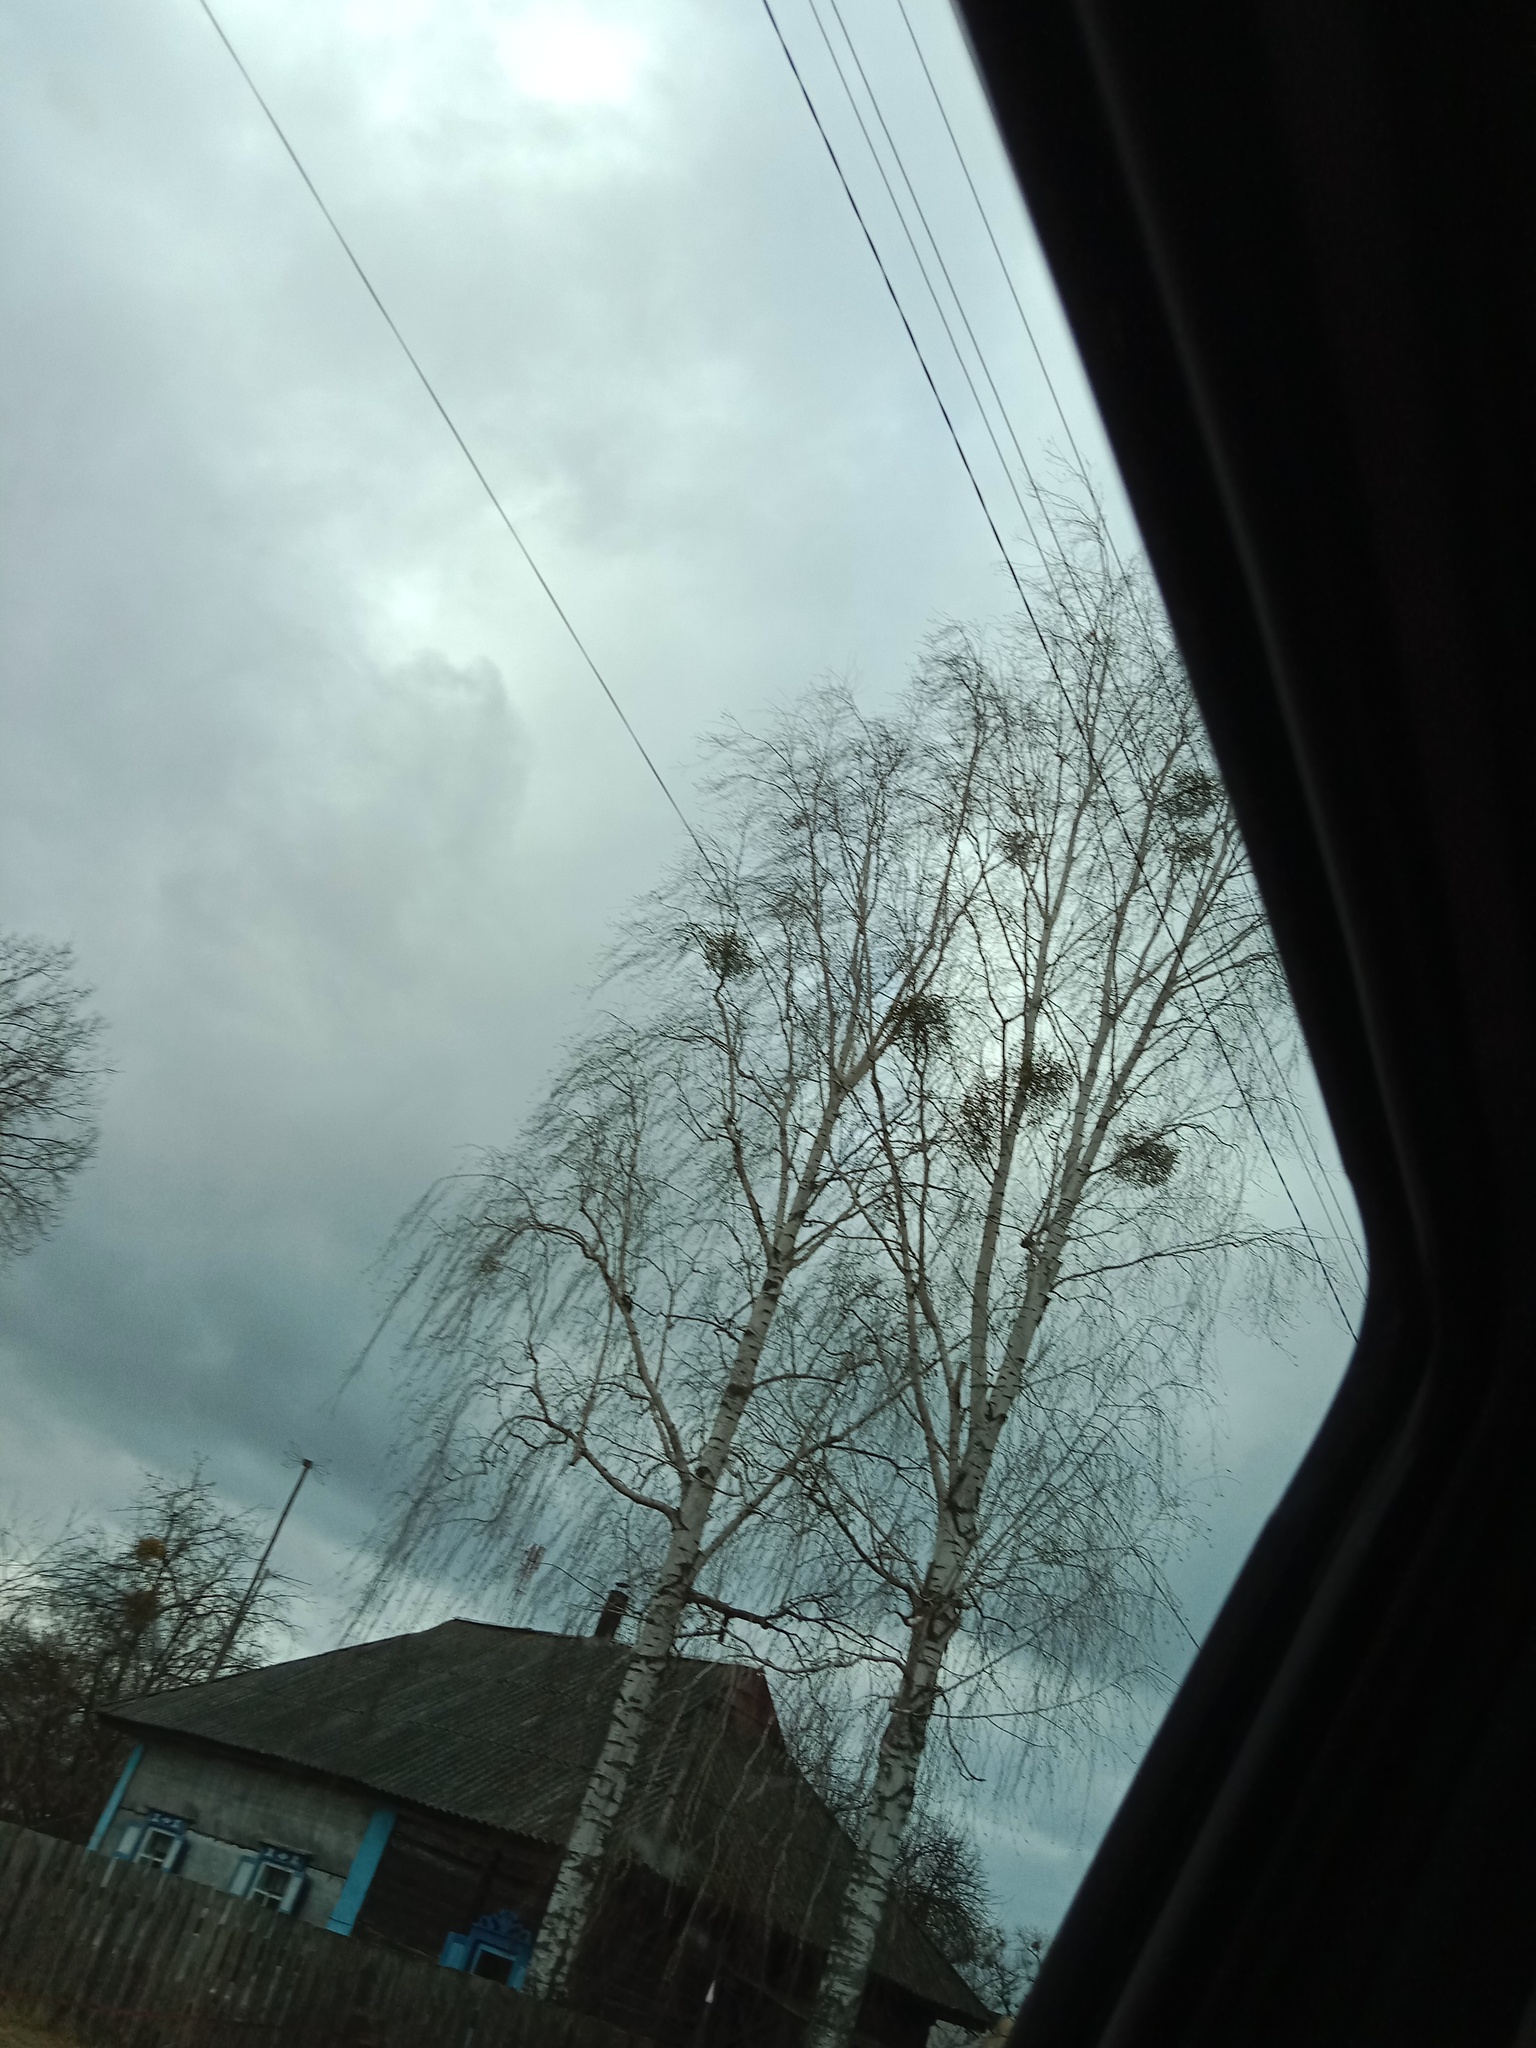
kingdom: Plantae
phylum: Tracheophyta
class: Magnoliopsida
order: Santalales
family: Viscaceae
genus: Viscum
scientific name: Viscum album
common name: Mistletoe
